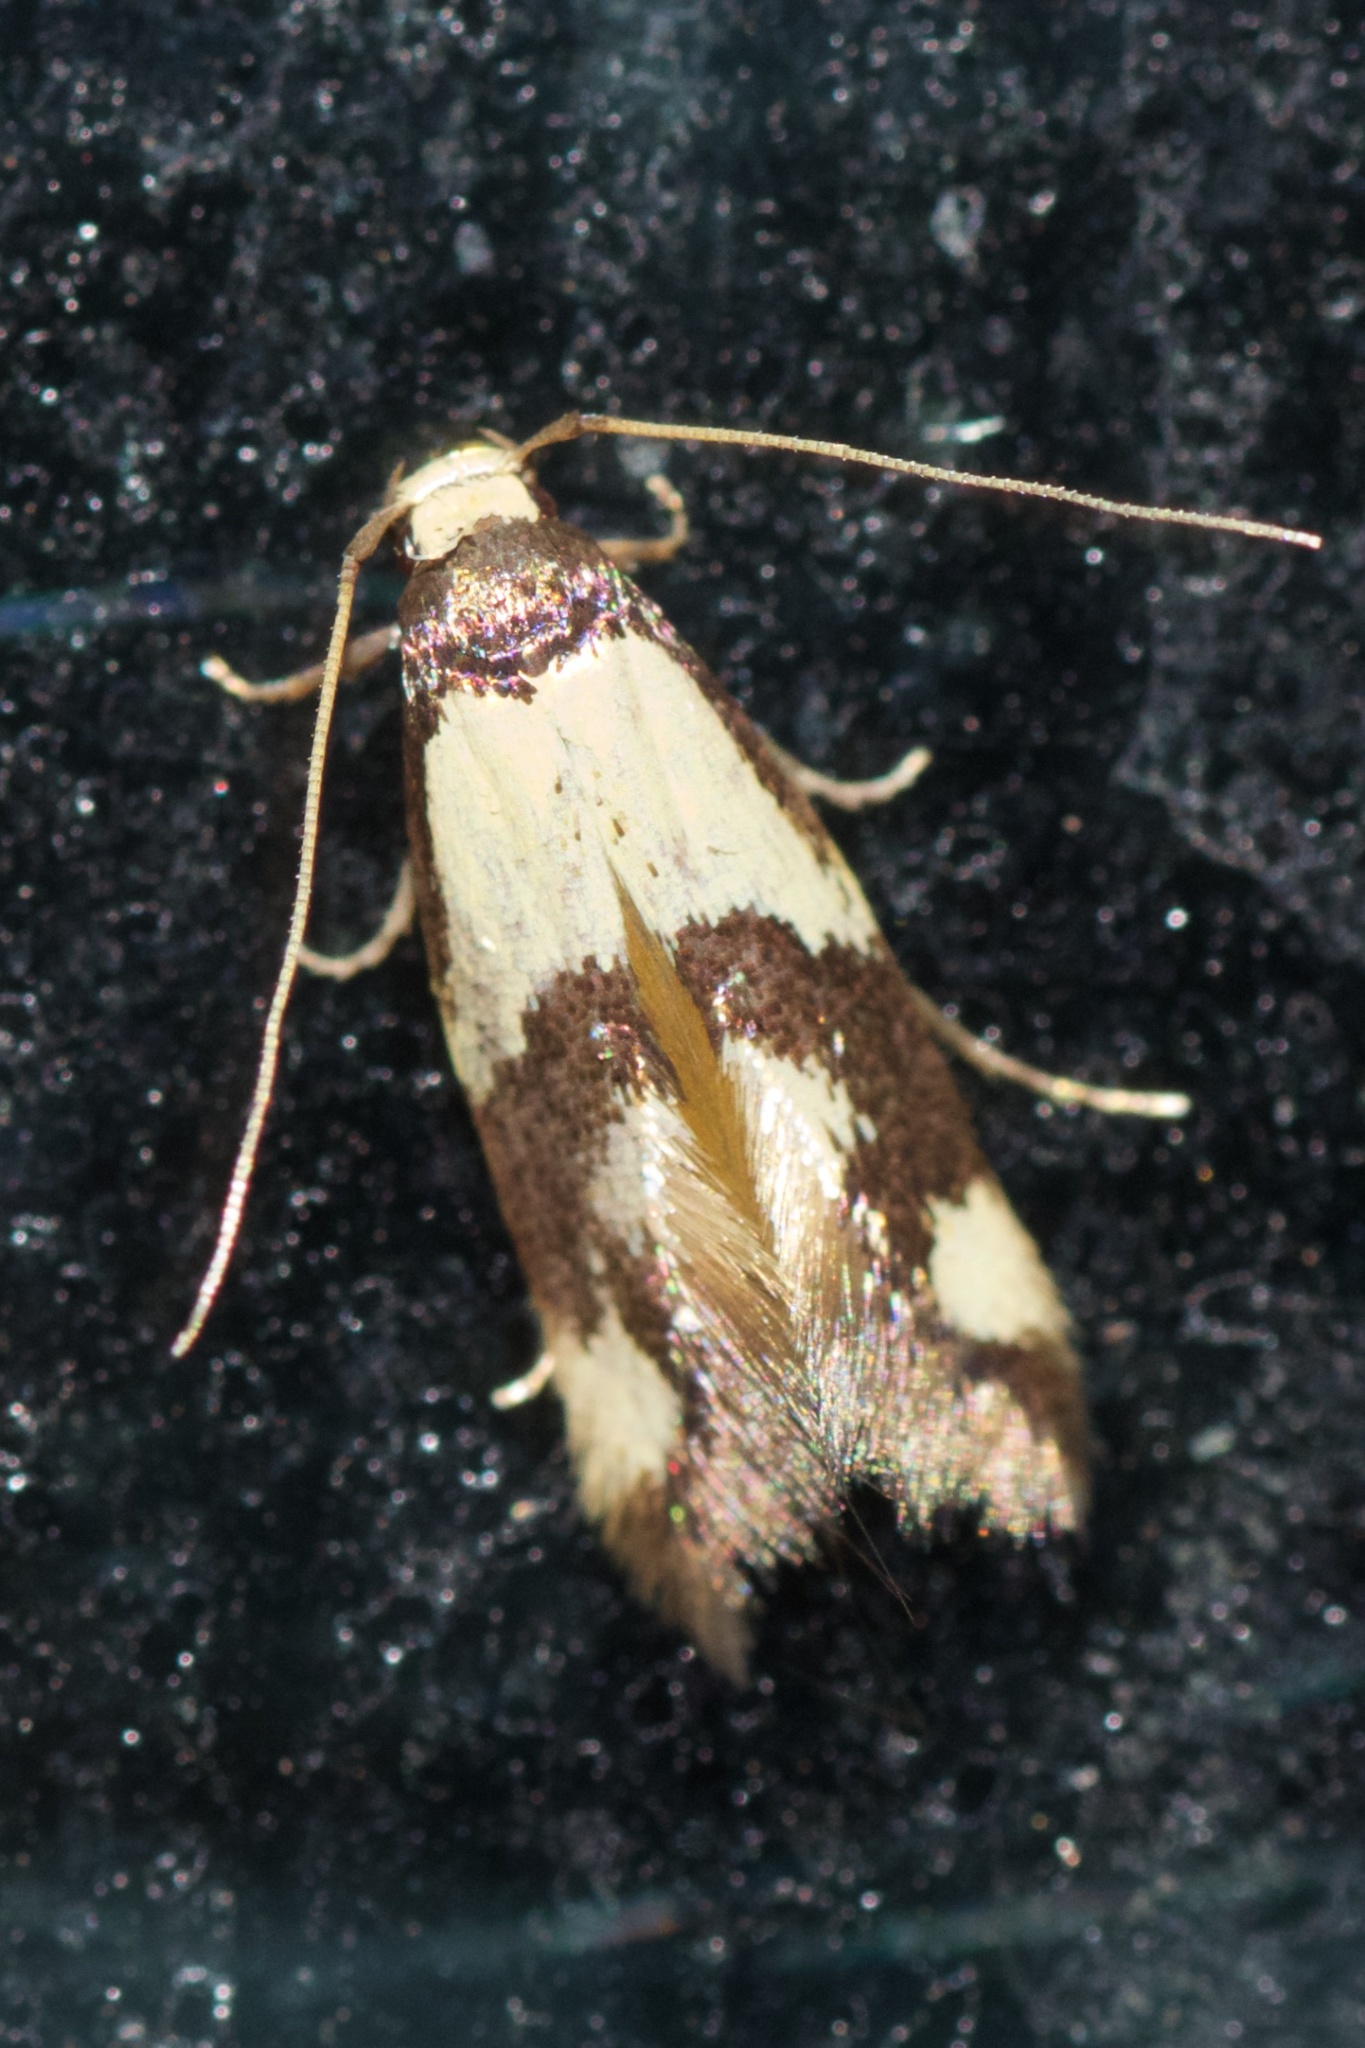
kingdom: Animalia
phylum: Arthropoda
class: Insecta
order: Lepidoptera
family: Tineidae
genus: Opogona
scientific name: Opogona comptella
